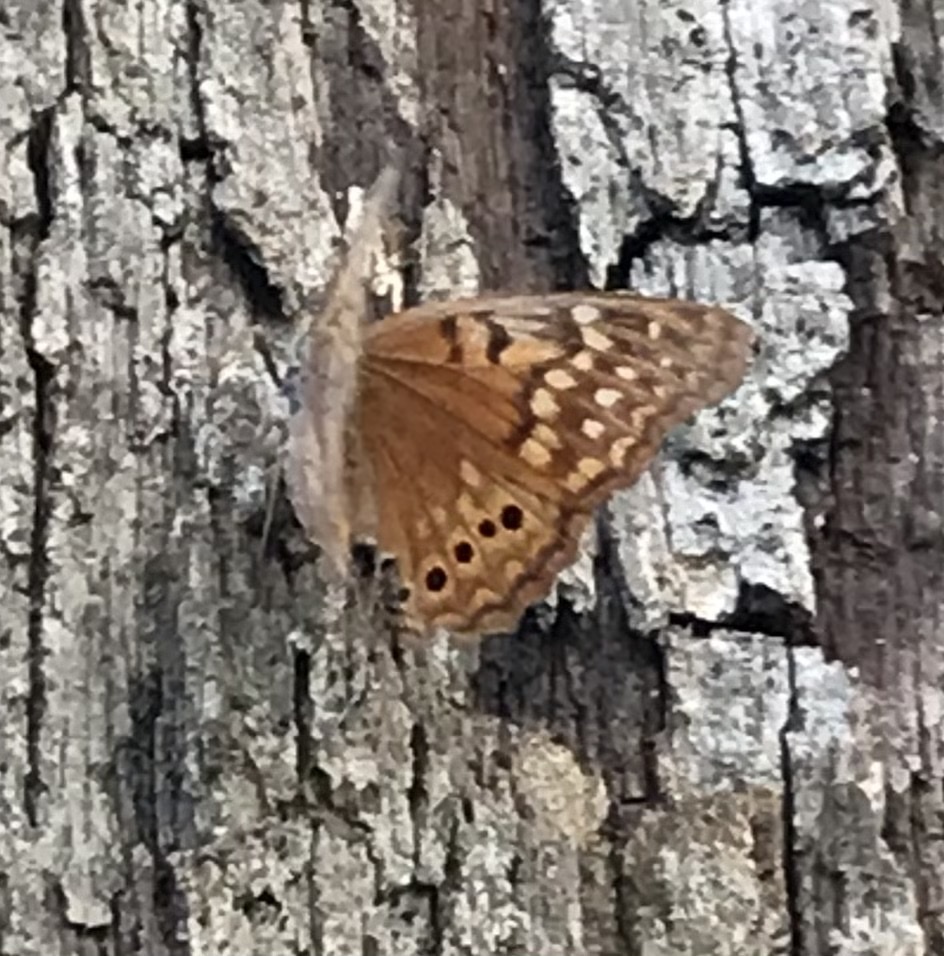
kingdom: Animalia
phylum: Arthropoda
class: Insecta
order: Lepidoptera
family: Nymphalidae
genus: Asterocampa
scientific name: Asterocampa clyton
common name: Tawny emperor
